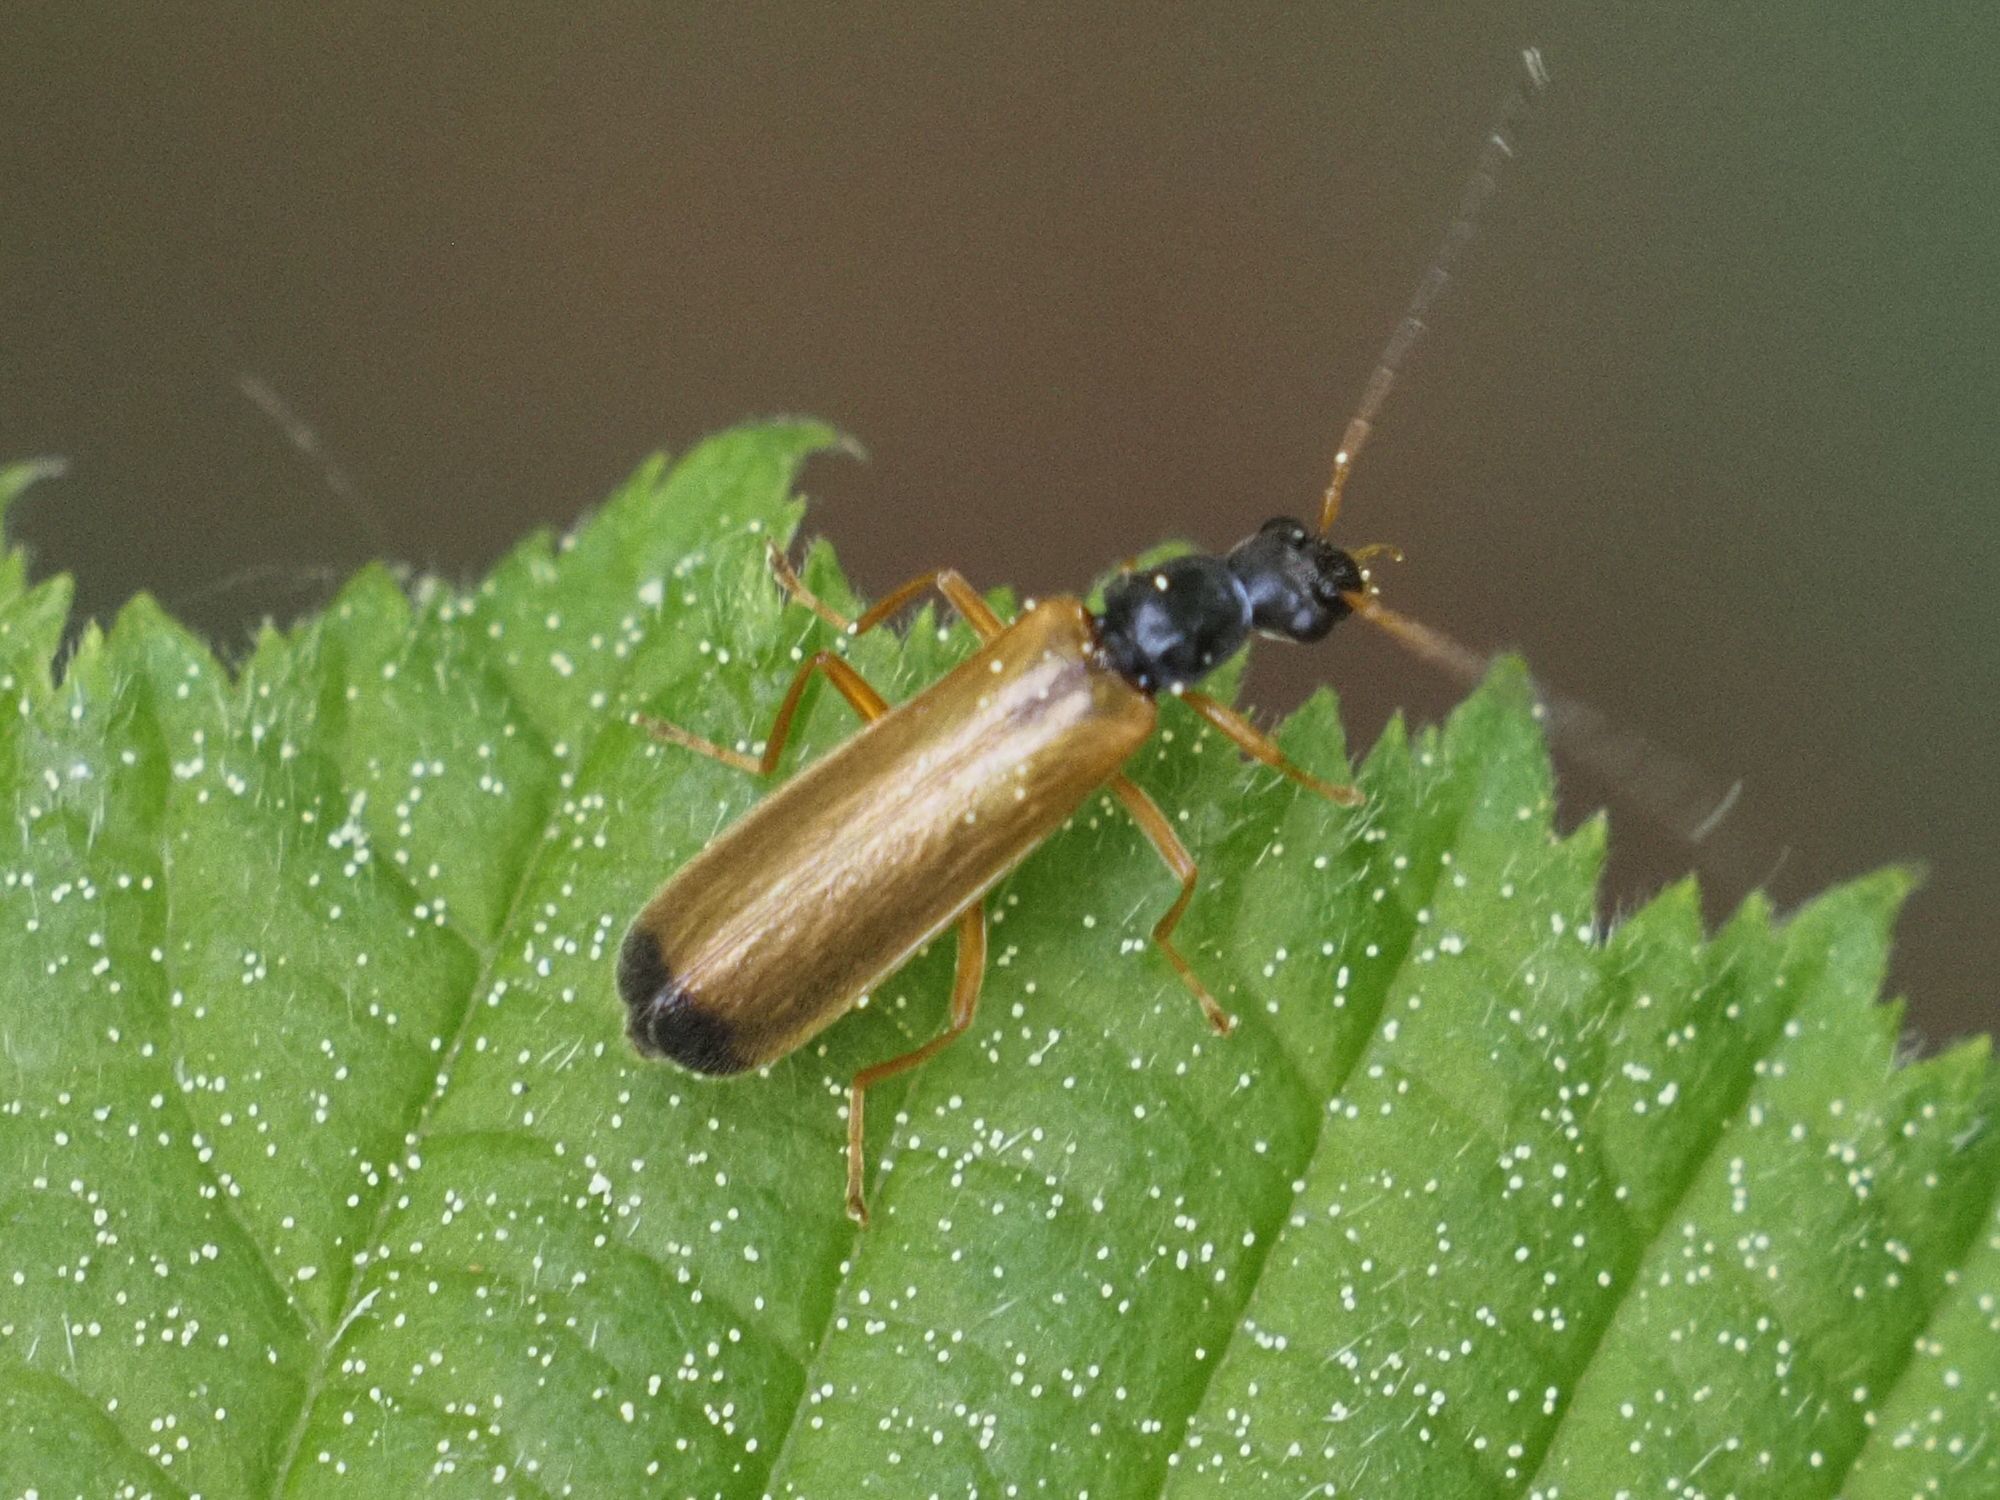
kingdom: Animalia
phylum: Arthropoda
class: Insecta
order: Coleoptera
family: Cantharidae
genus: Rhagonycha
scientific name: Rhagonycha lignosa
